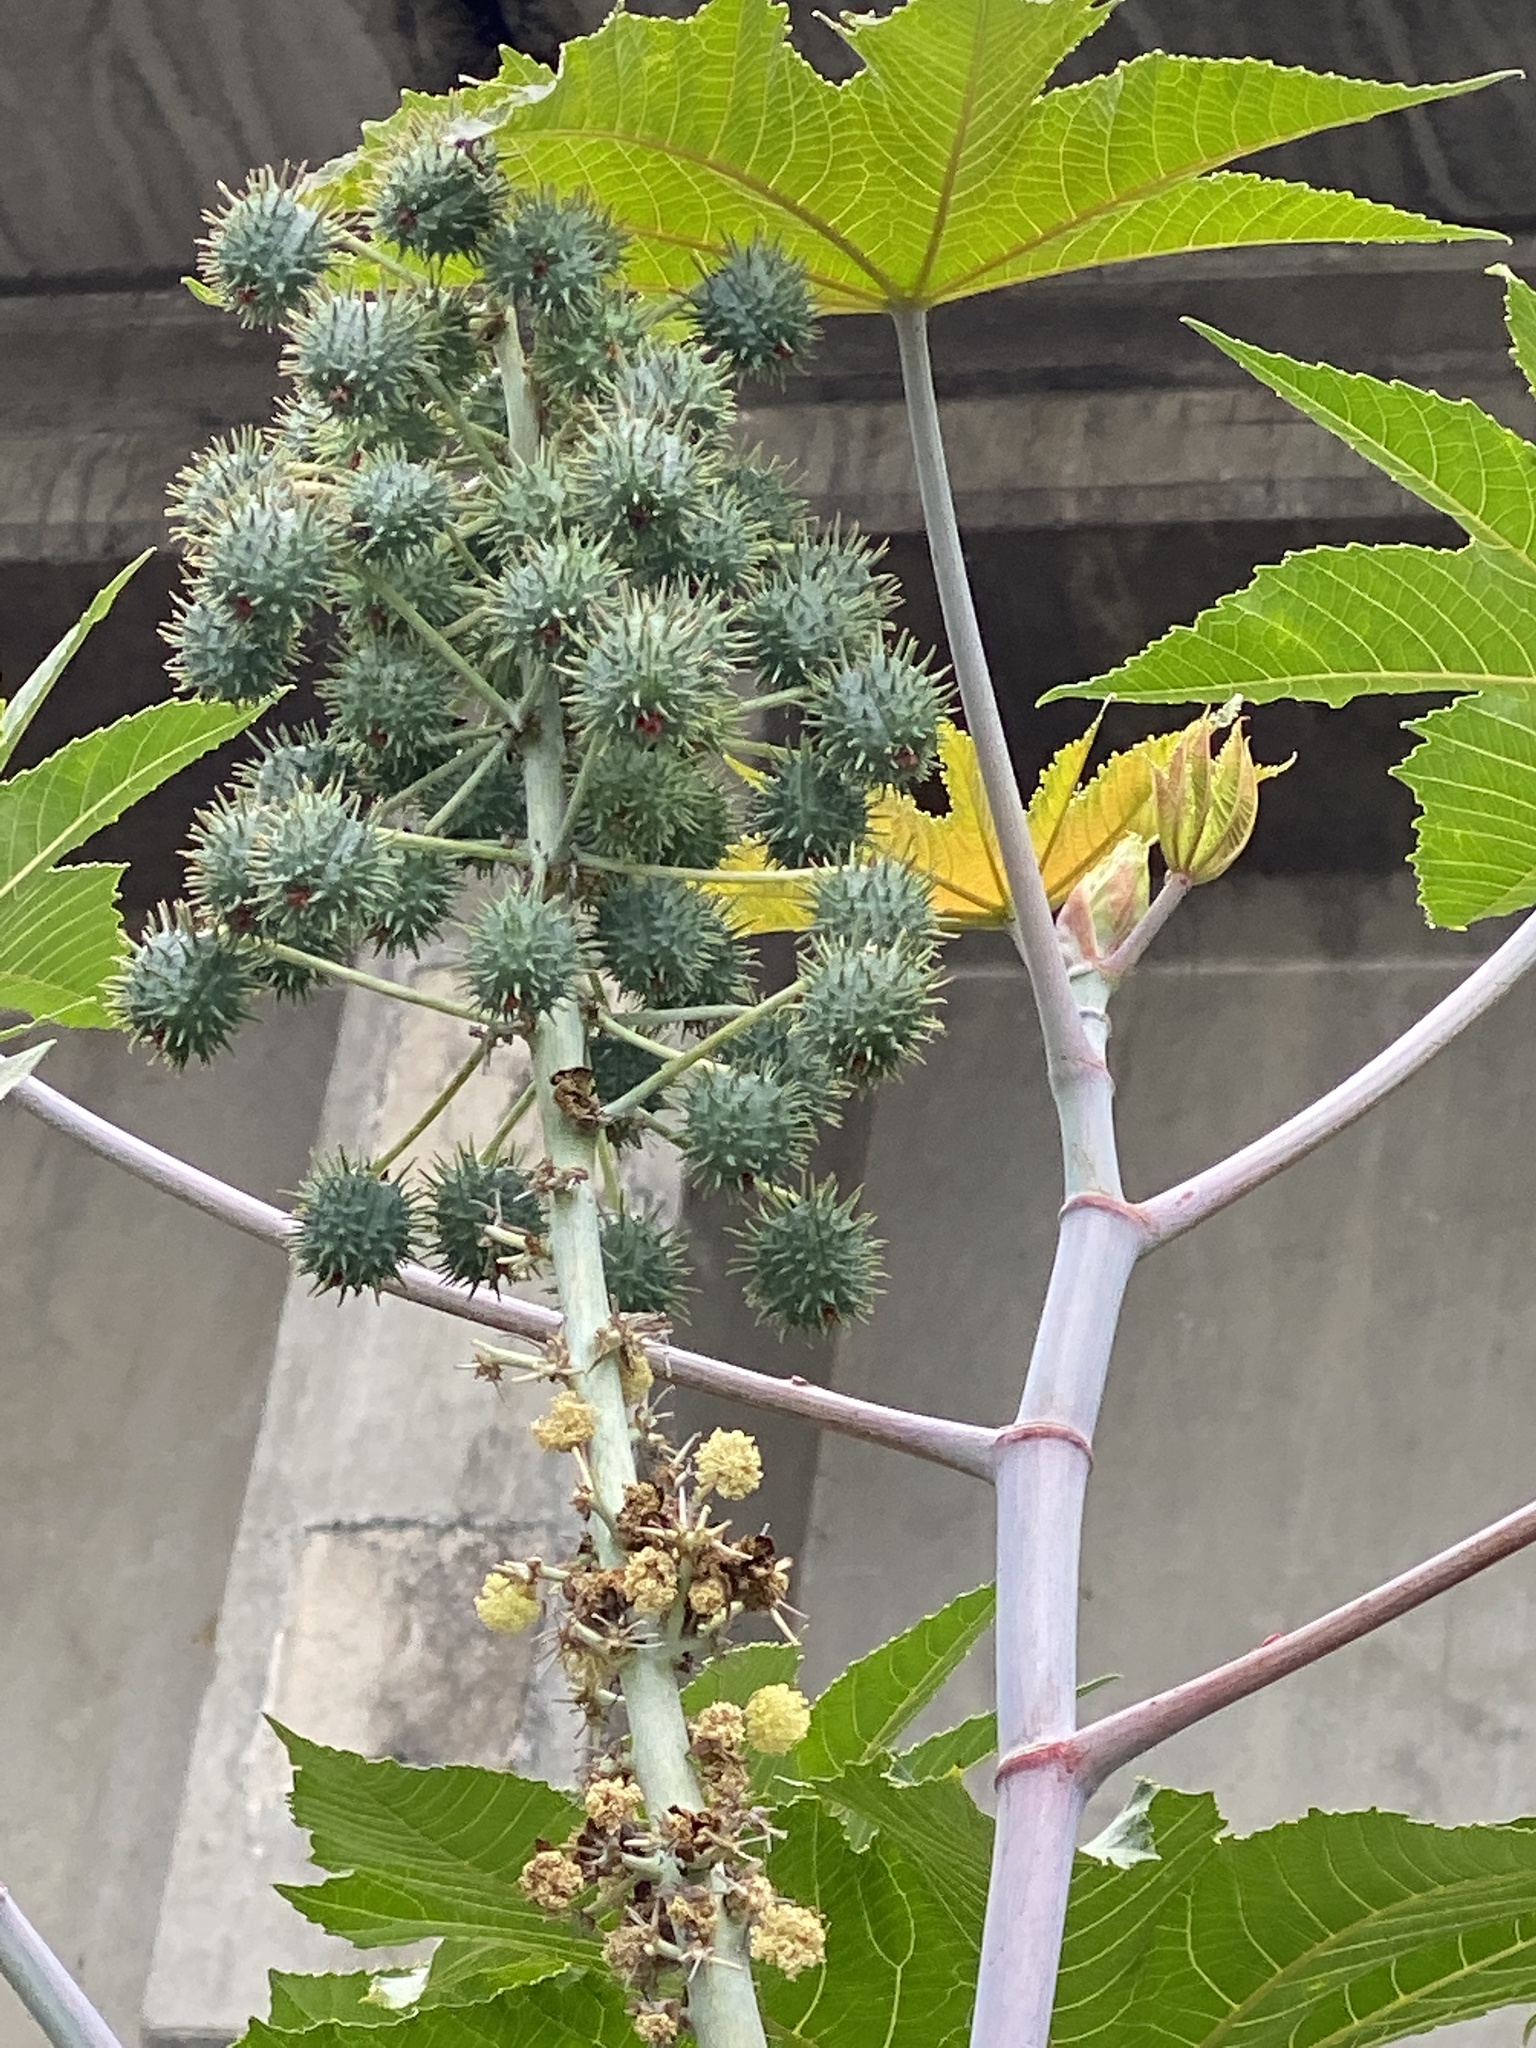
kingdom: Plantae
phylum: Tracheophyta
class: Magnoliopsida
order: Malpighiales
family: Euphorbiaceae
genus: Ricinus
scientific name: Ricinus communis
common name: Castor-oil-plant
